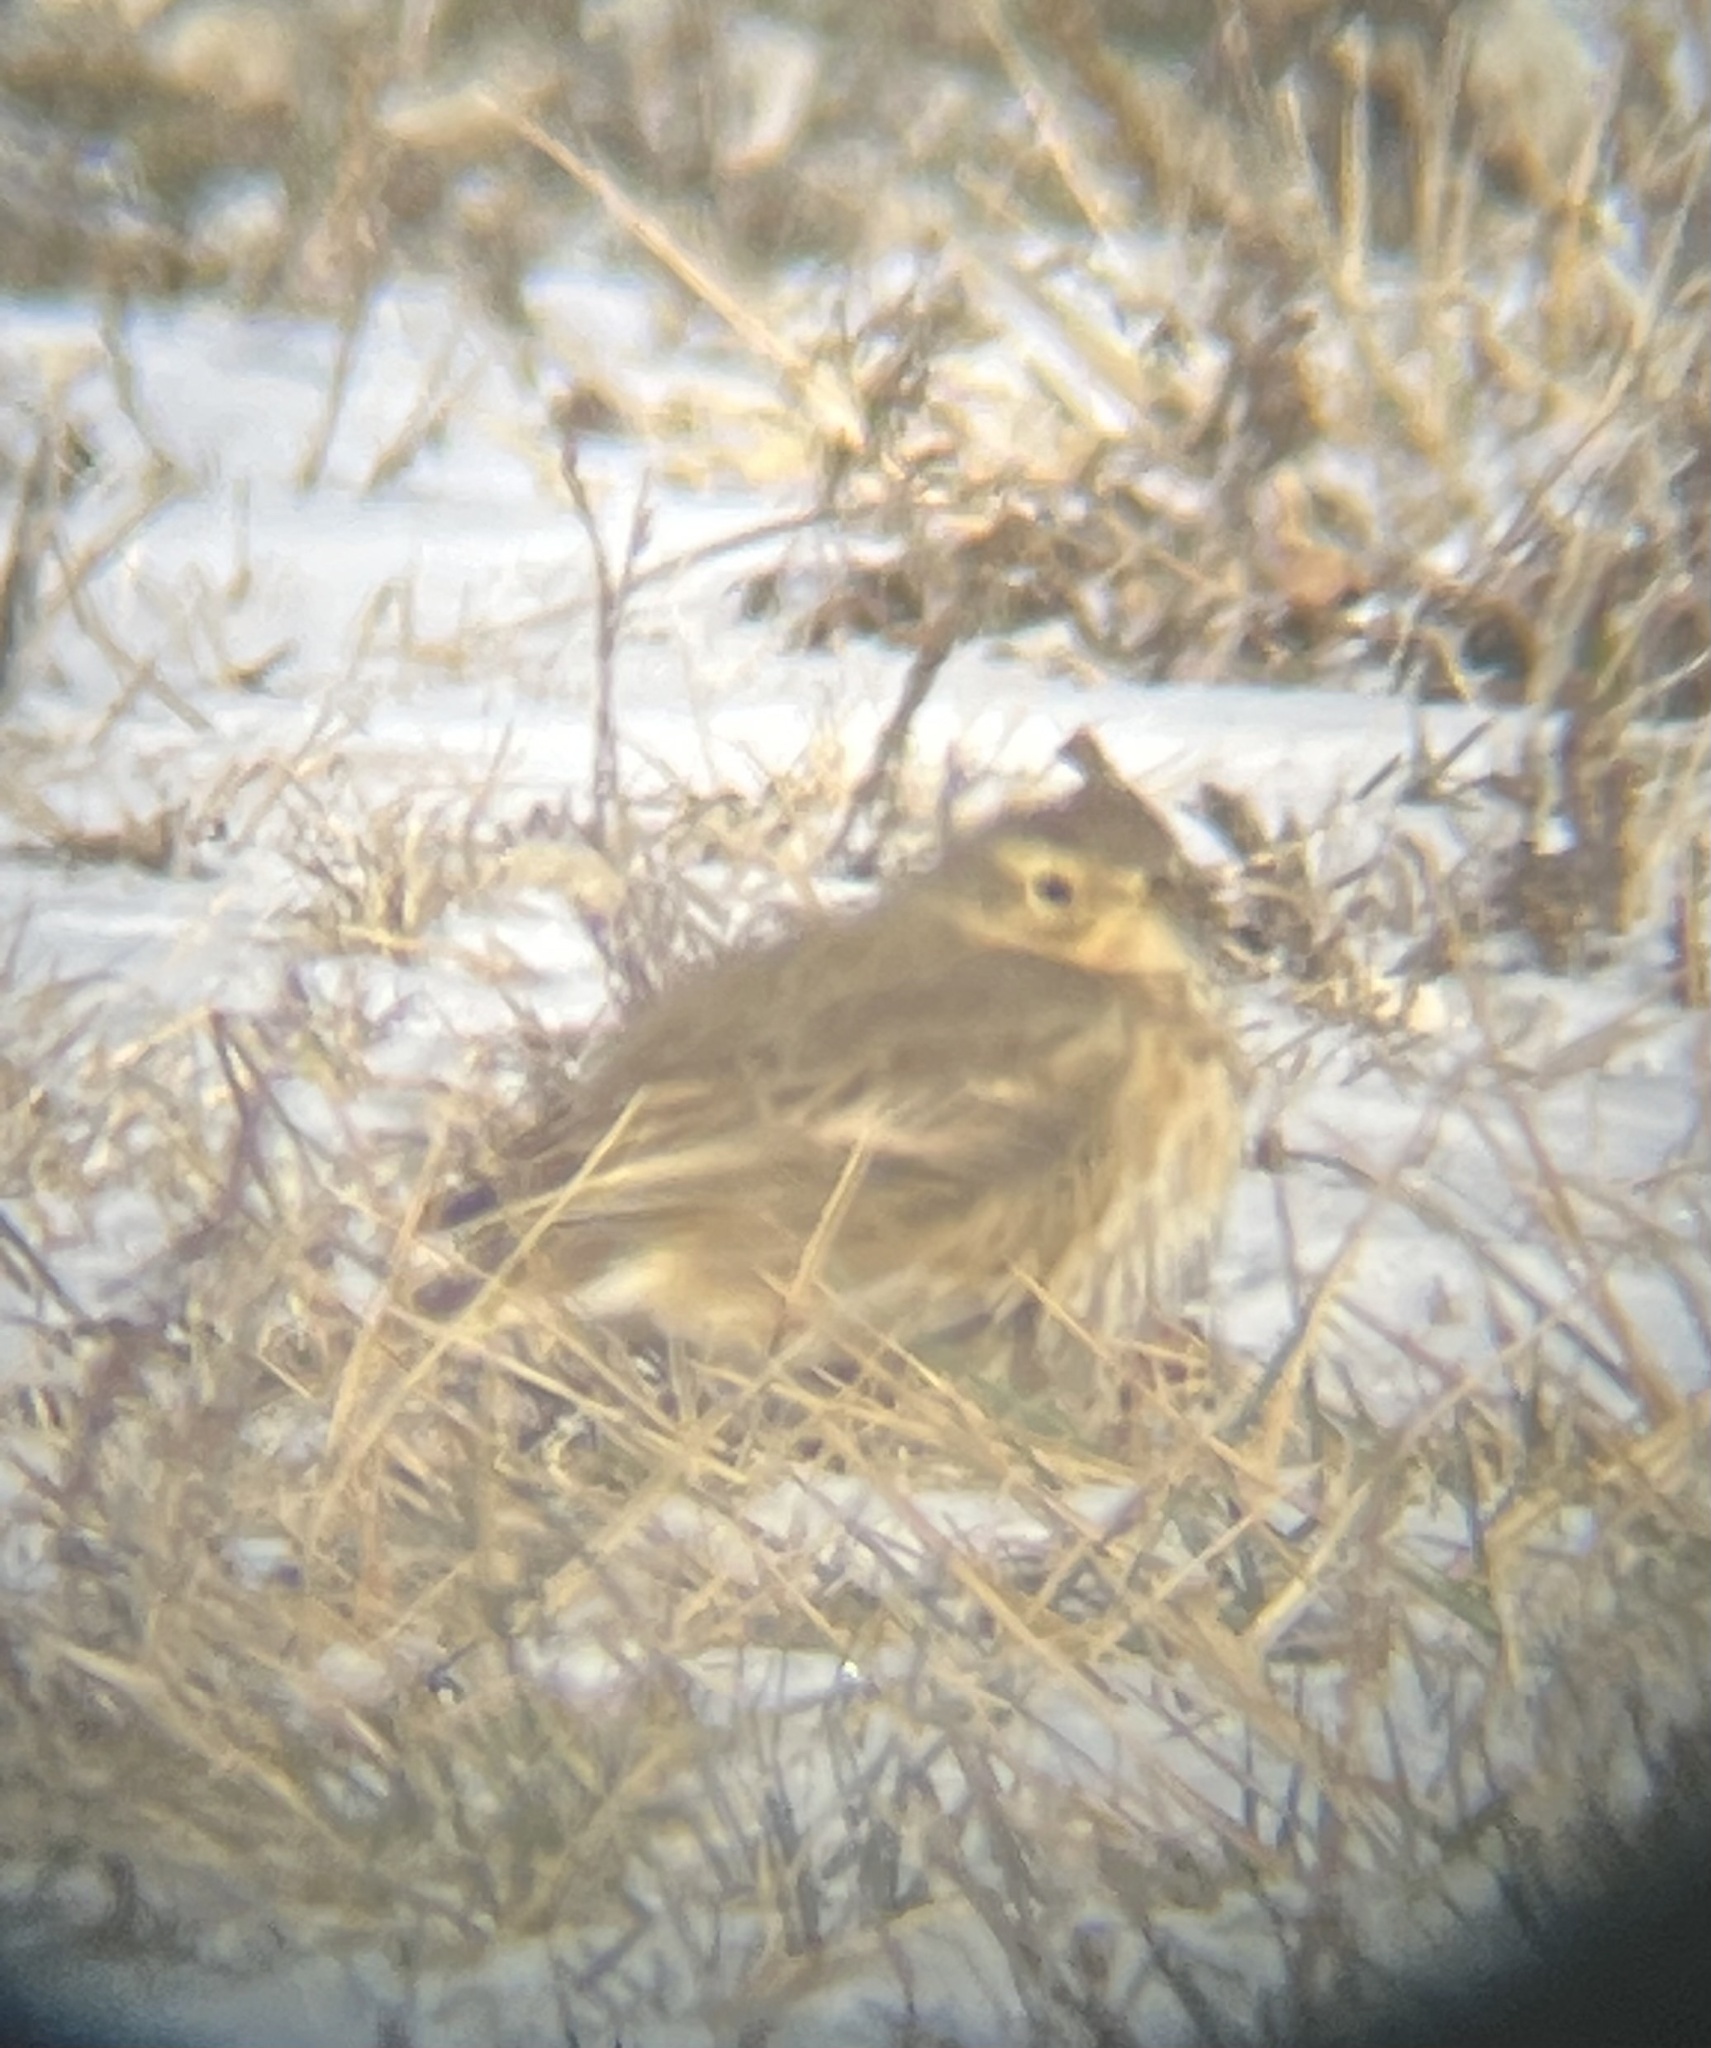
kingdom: Animalia
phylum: Chordata
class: Aves
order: Passeriformes
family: Motacillidae
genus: Anthus
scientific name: Anthus rubescens
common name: Buff-bellied pipit
